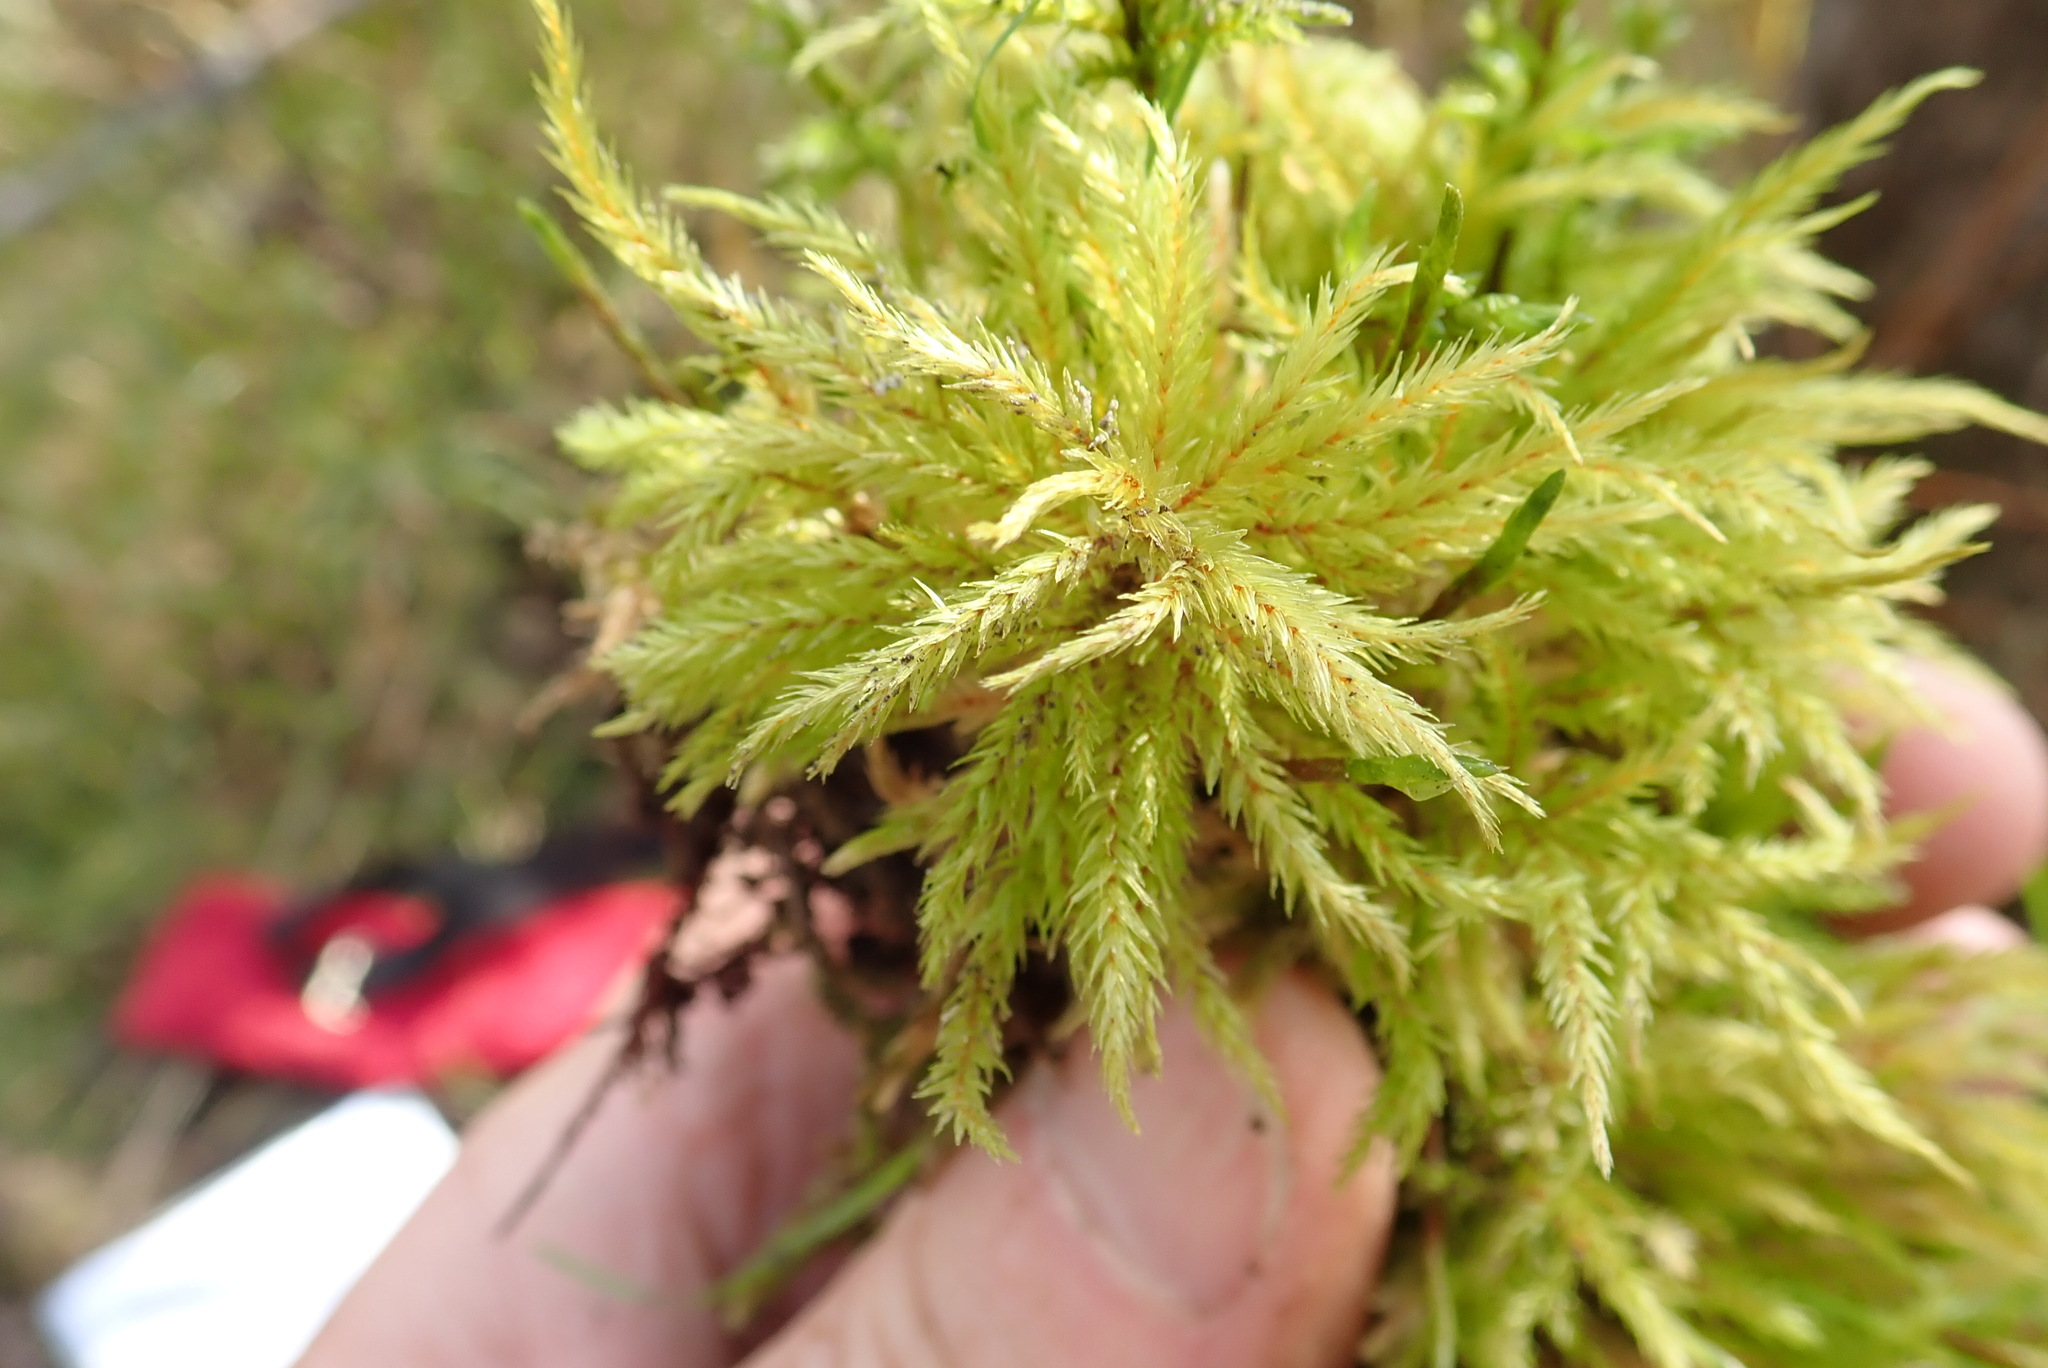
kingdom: Plantae
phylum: Bryophyta
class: Bryopsida
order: Hypnales
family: Climaciaceae
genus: Climacium
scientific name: Climacium dendroides
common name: Northern tree moss
